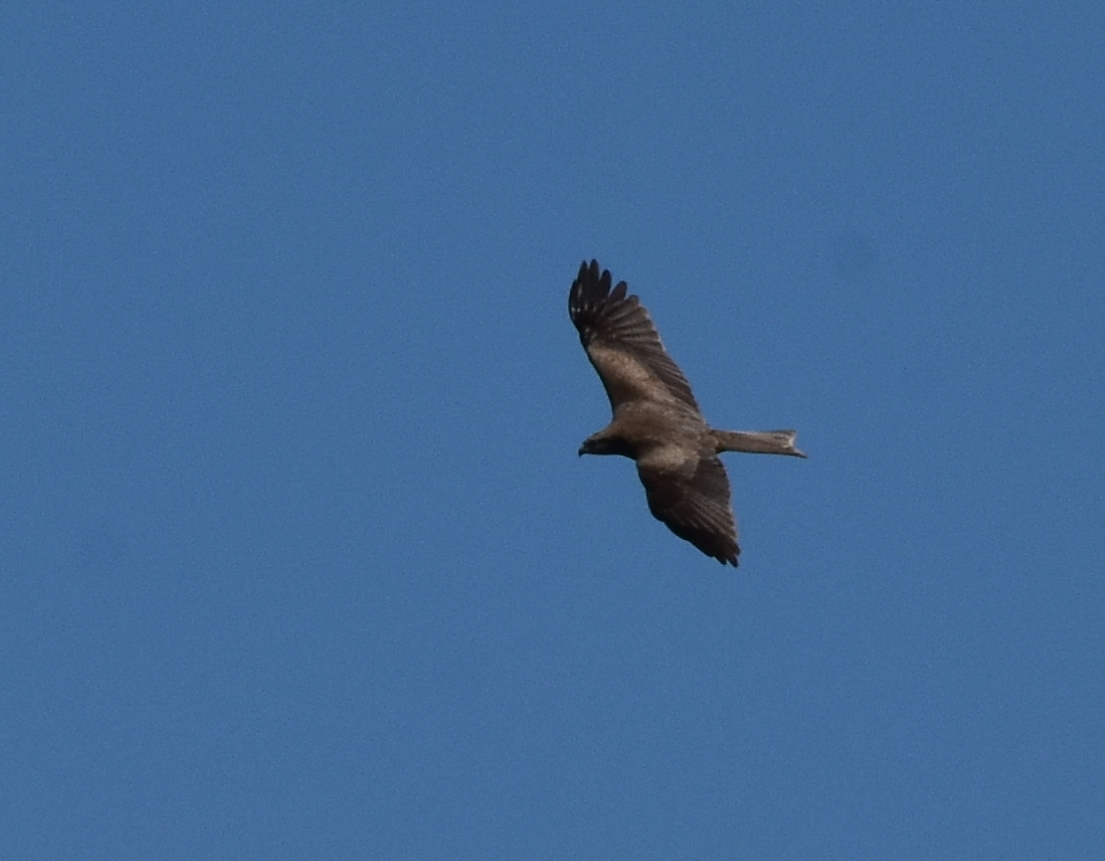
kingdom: Animalia
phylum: Chordata
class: Aves
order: Accipitriformes
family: Accipitridae
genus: Milvus
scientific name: Milvus migrans
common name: Black kite
